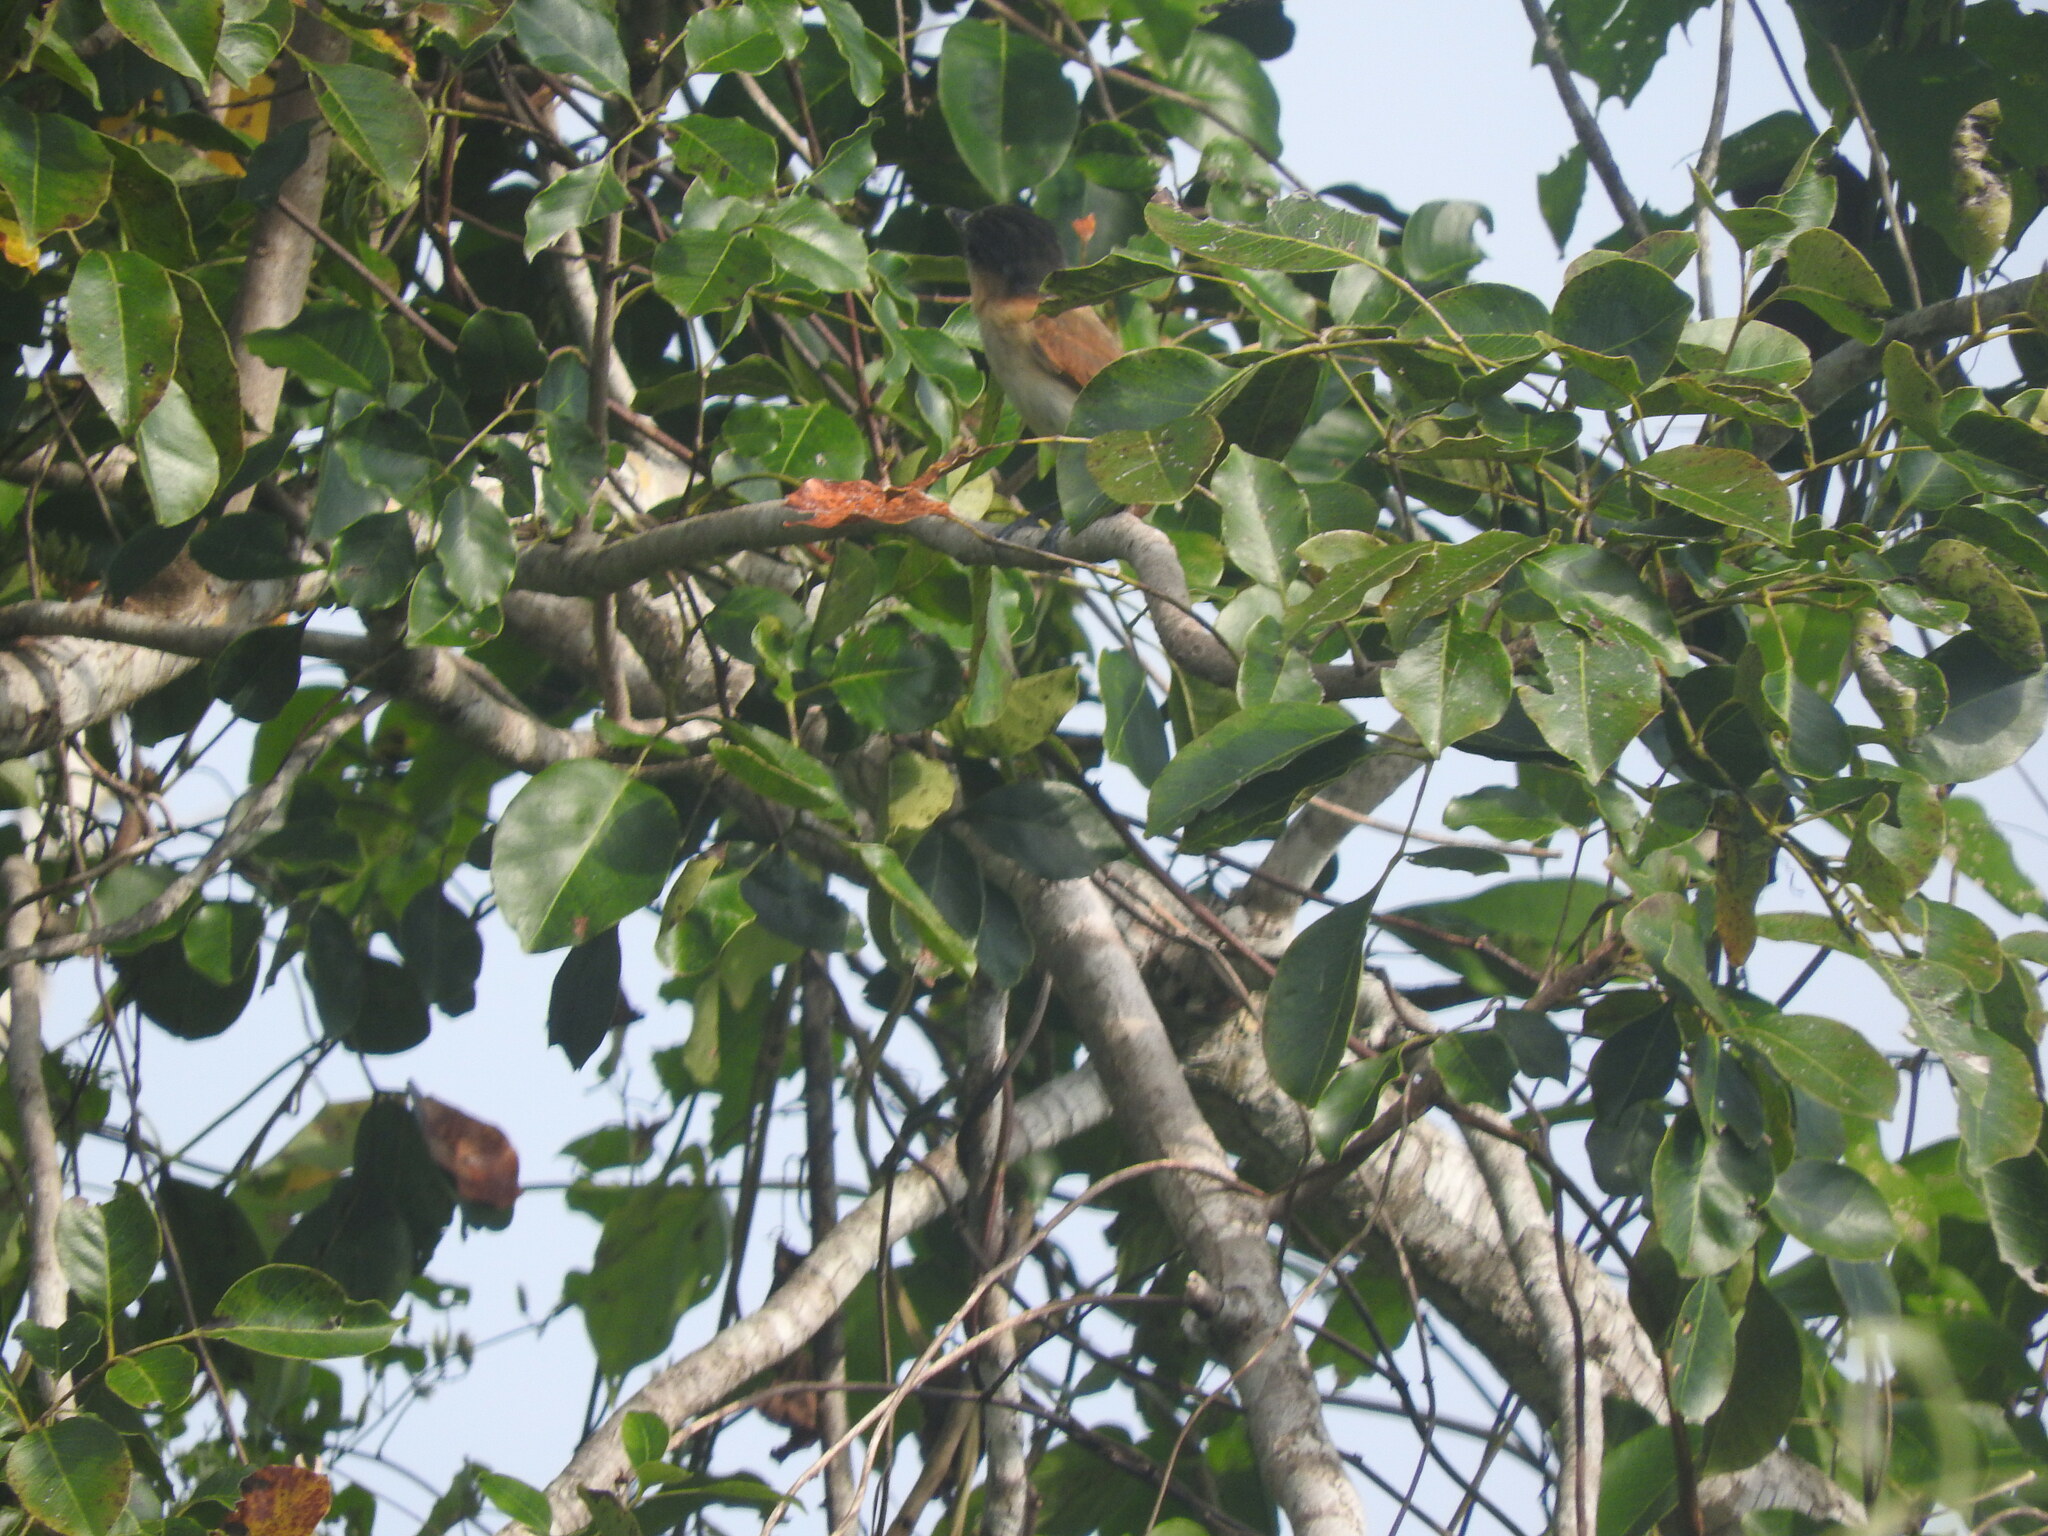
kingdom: Animalia
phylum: Chordata
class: Aves
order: Passeriformes
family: Cotingidae
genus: Pachyramphus
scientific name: Pachyramphus aglaiae
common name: Rose-throated becard
